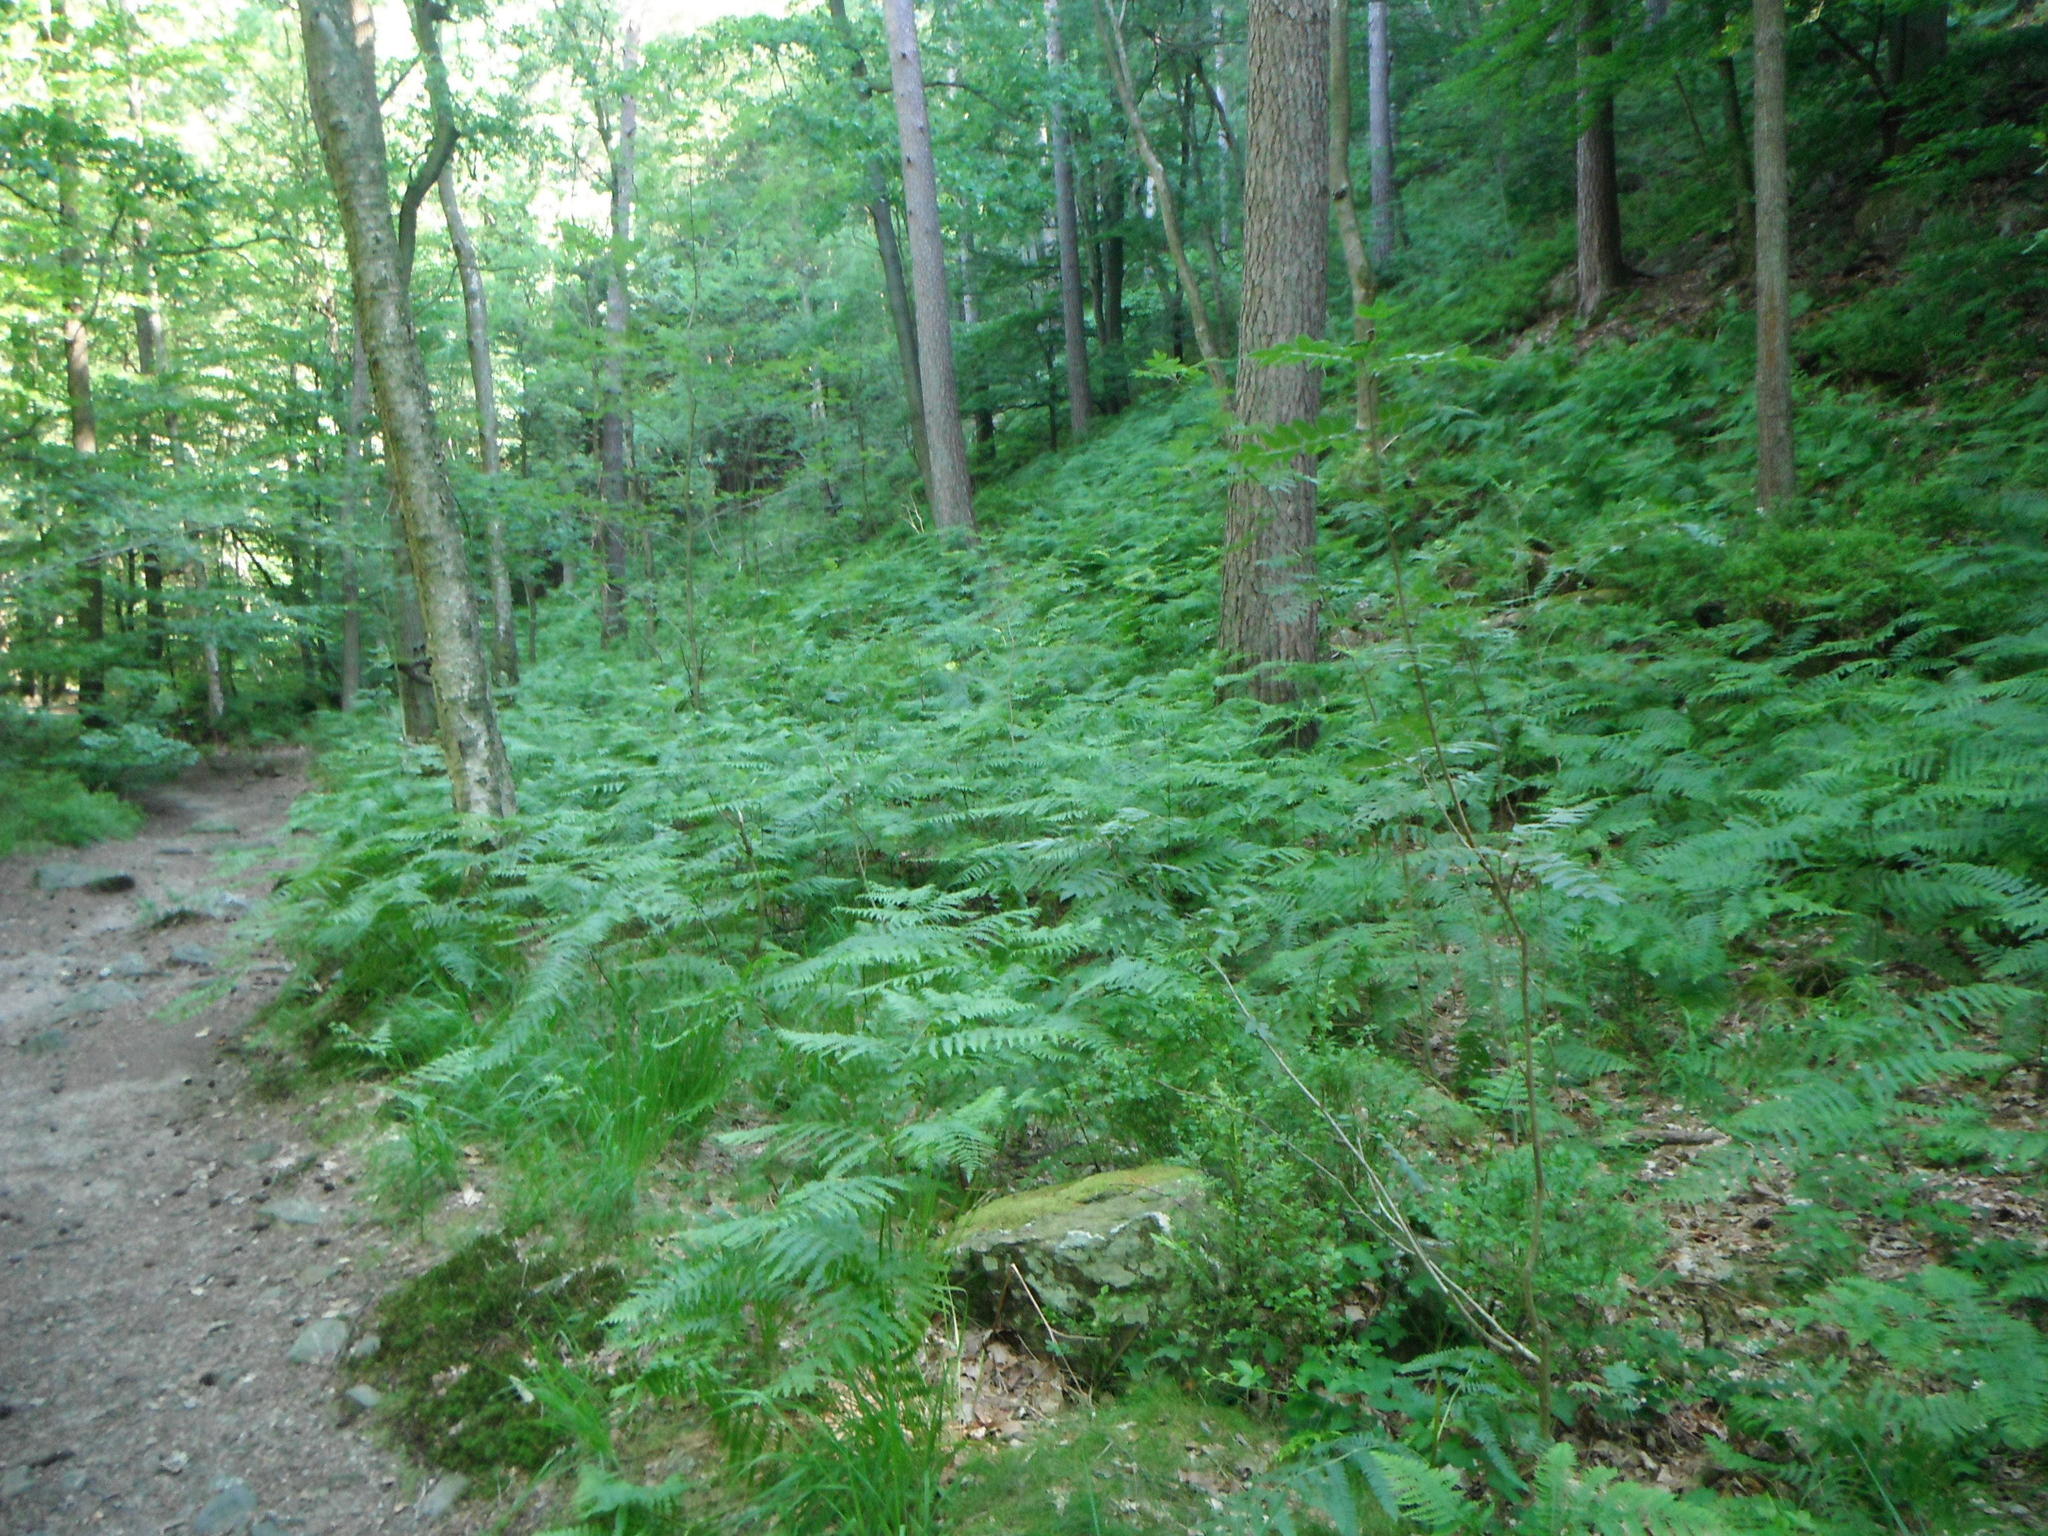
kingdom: Plantae
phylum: Tracheophyta
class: Polypodiopsida
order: Polypodiales
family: Dennstaedtiaceae
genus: Pteridium
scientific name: Pteridium aquilinum
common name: Bracken
